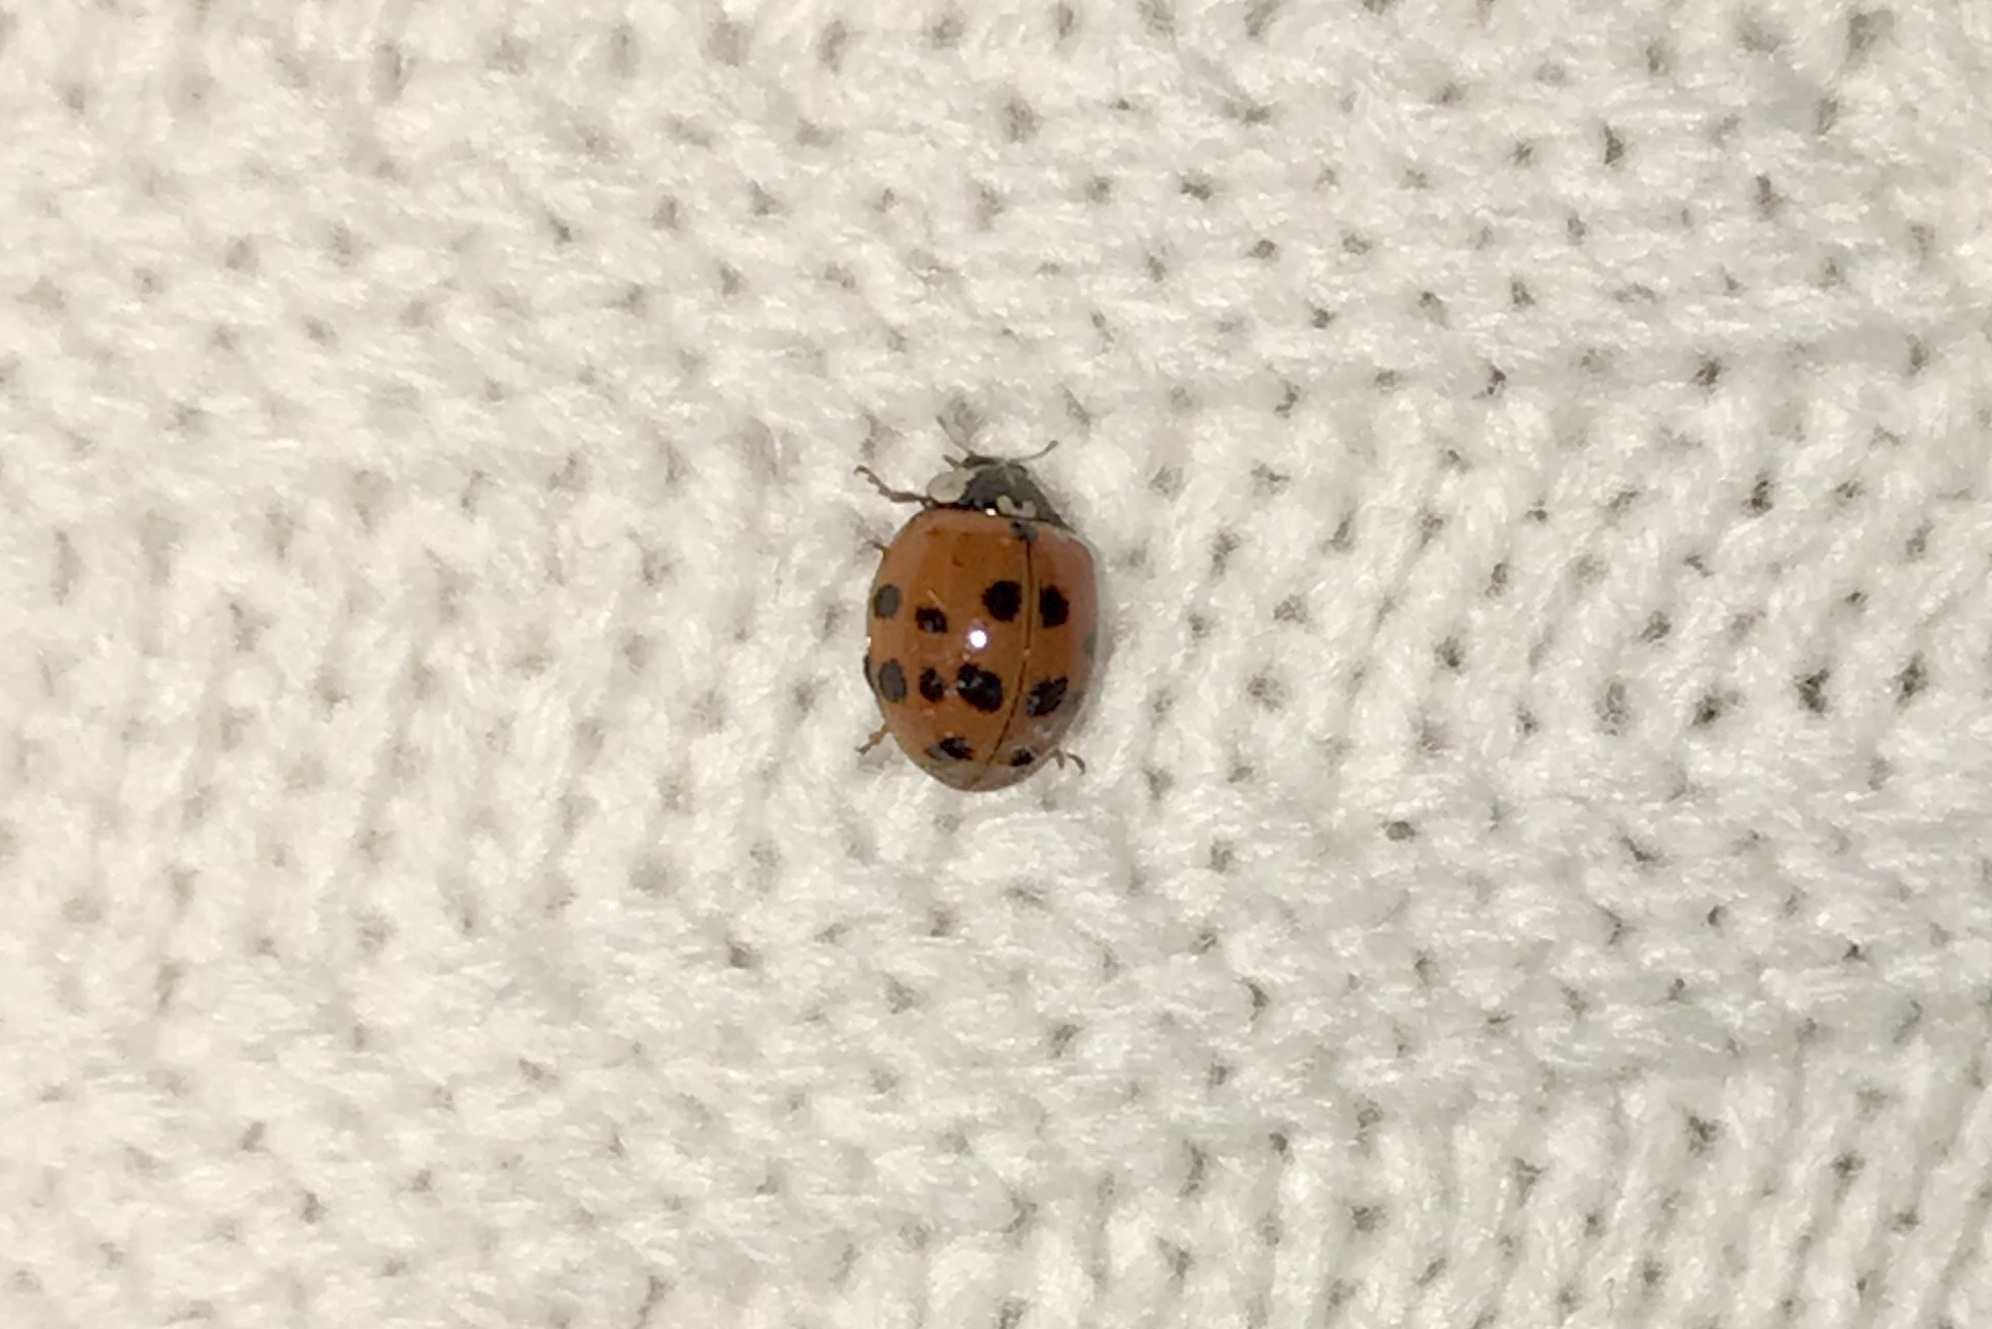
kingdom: Animalia
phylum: Arthropoda
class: Insecta
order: Coleoptera
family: Coccinellidae
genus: Harmonia
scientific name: Harmonia axyridis
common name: Harlequin ladybird
